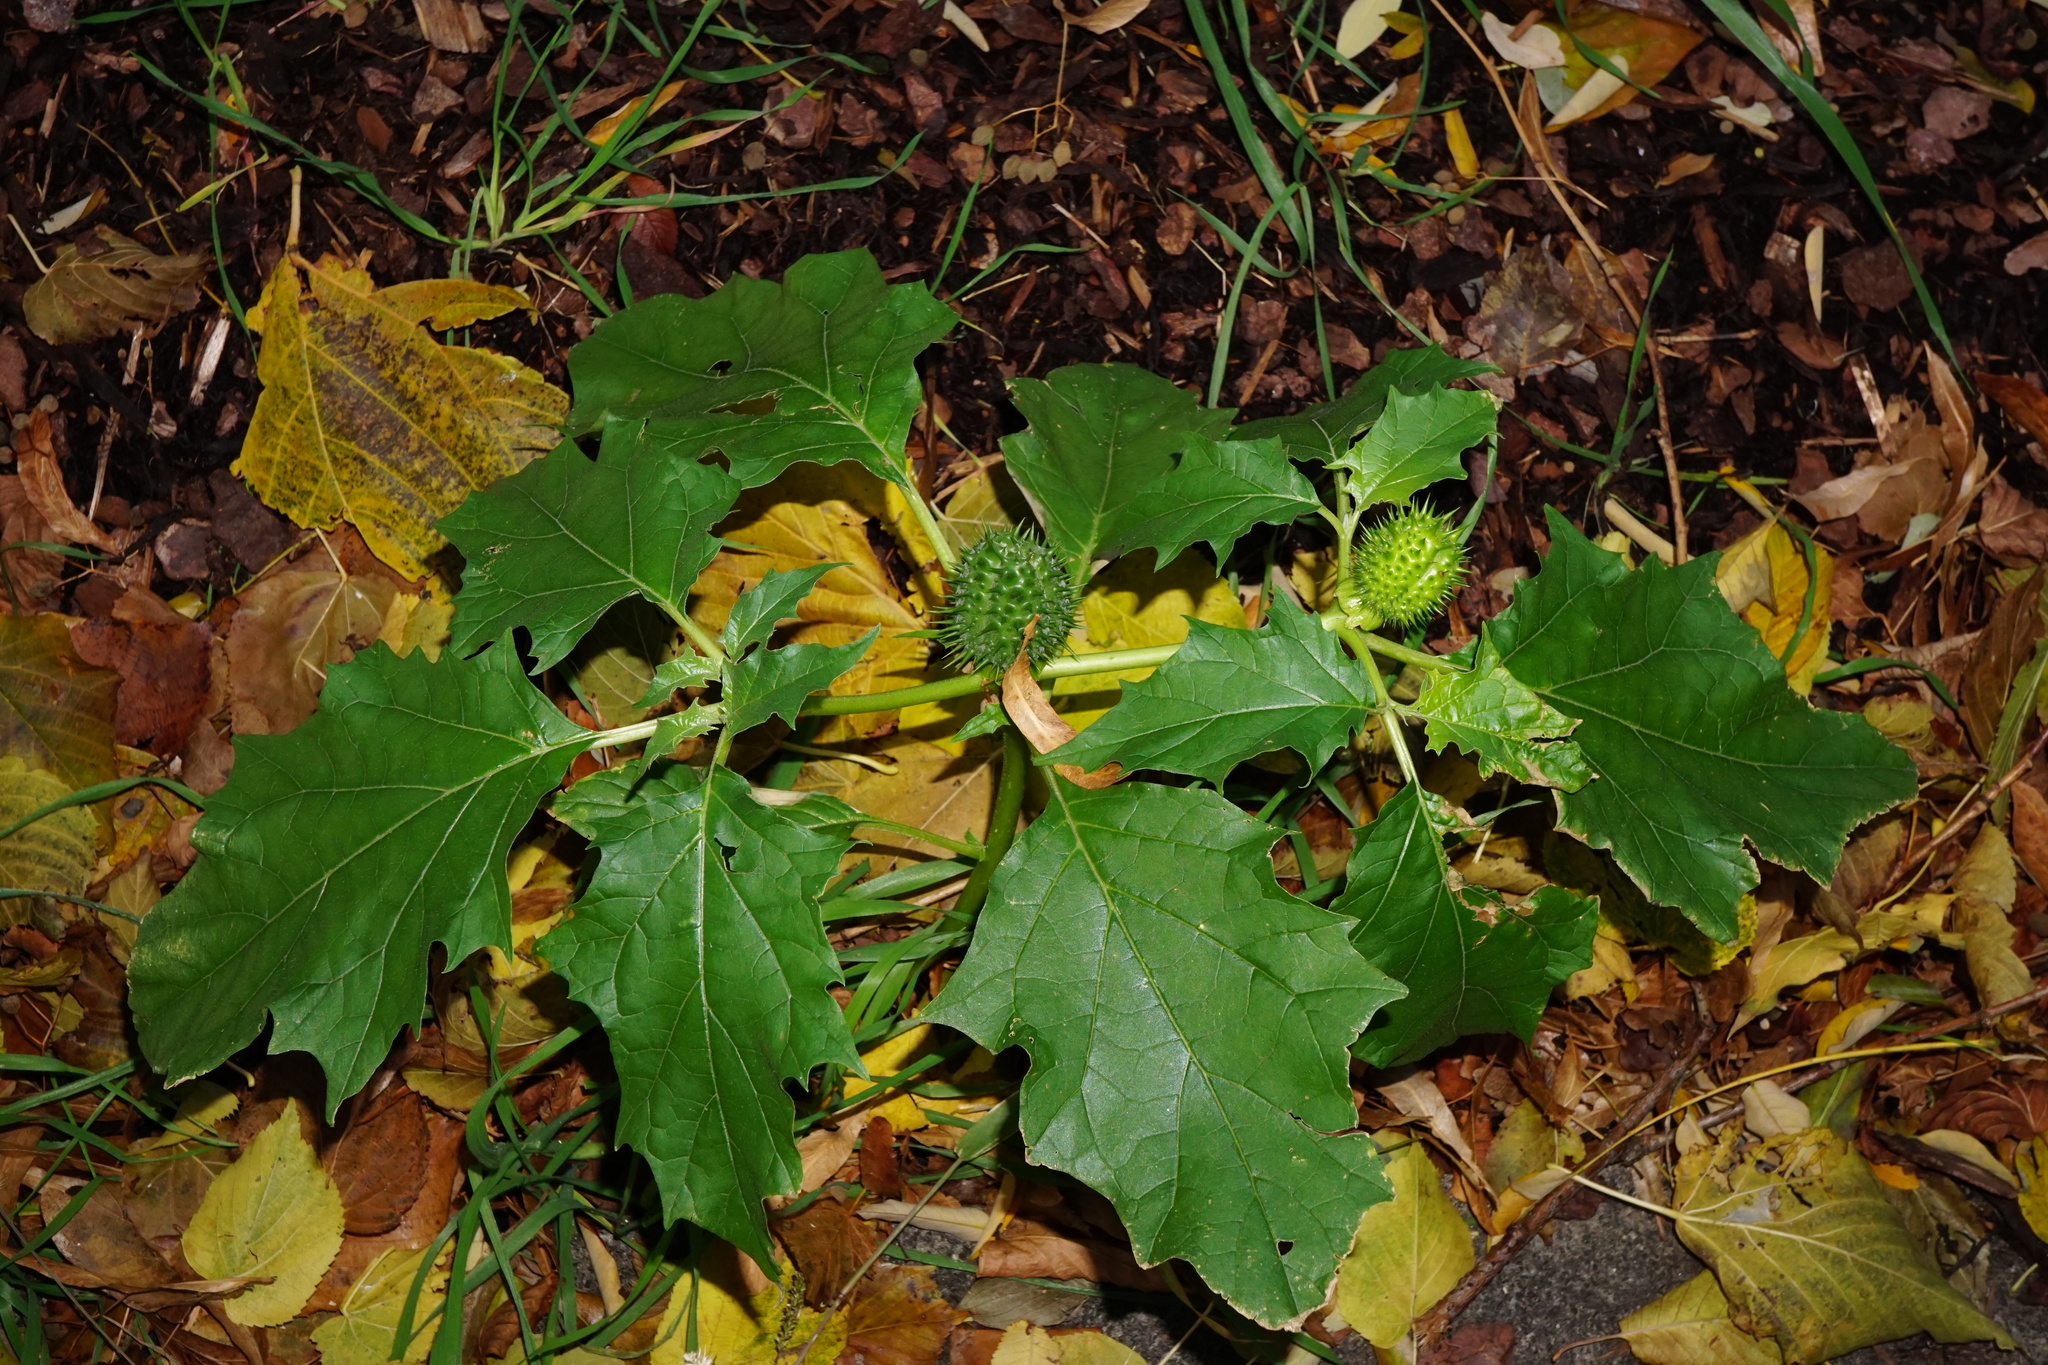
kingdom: Plantae
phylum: Tracheophyta
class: Magnoliopsida
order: Solanales
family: Solanaceae
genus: Datura
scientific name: Datura stramonium
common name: Thorn-apple
